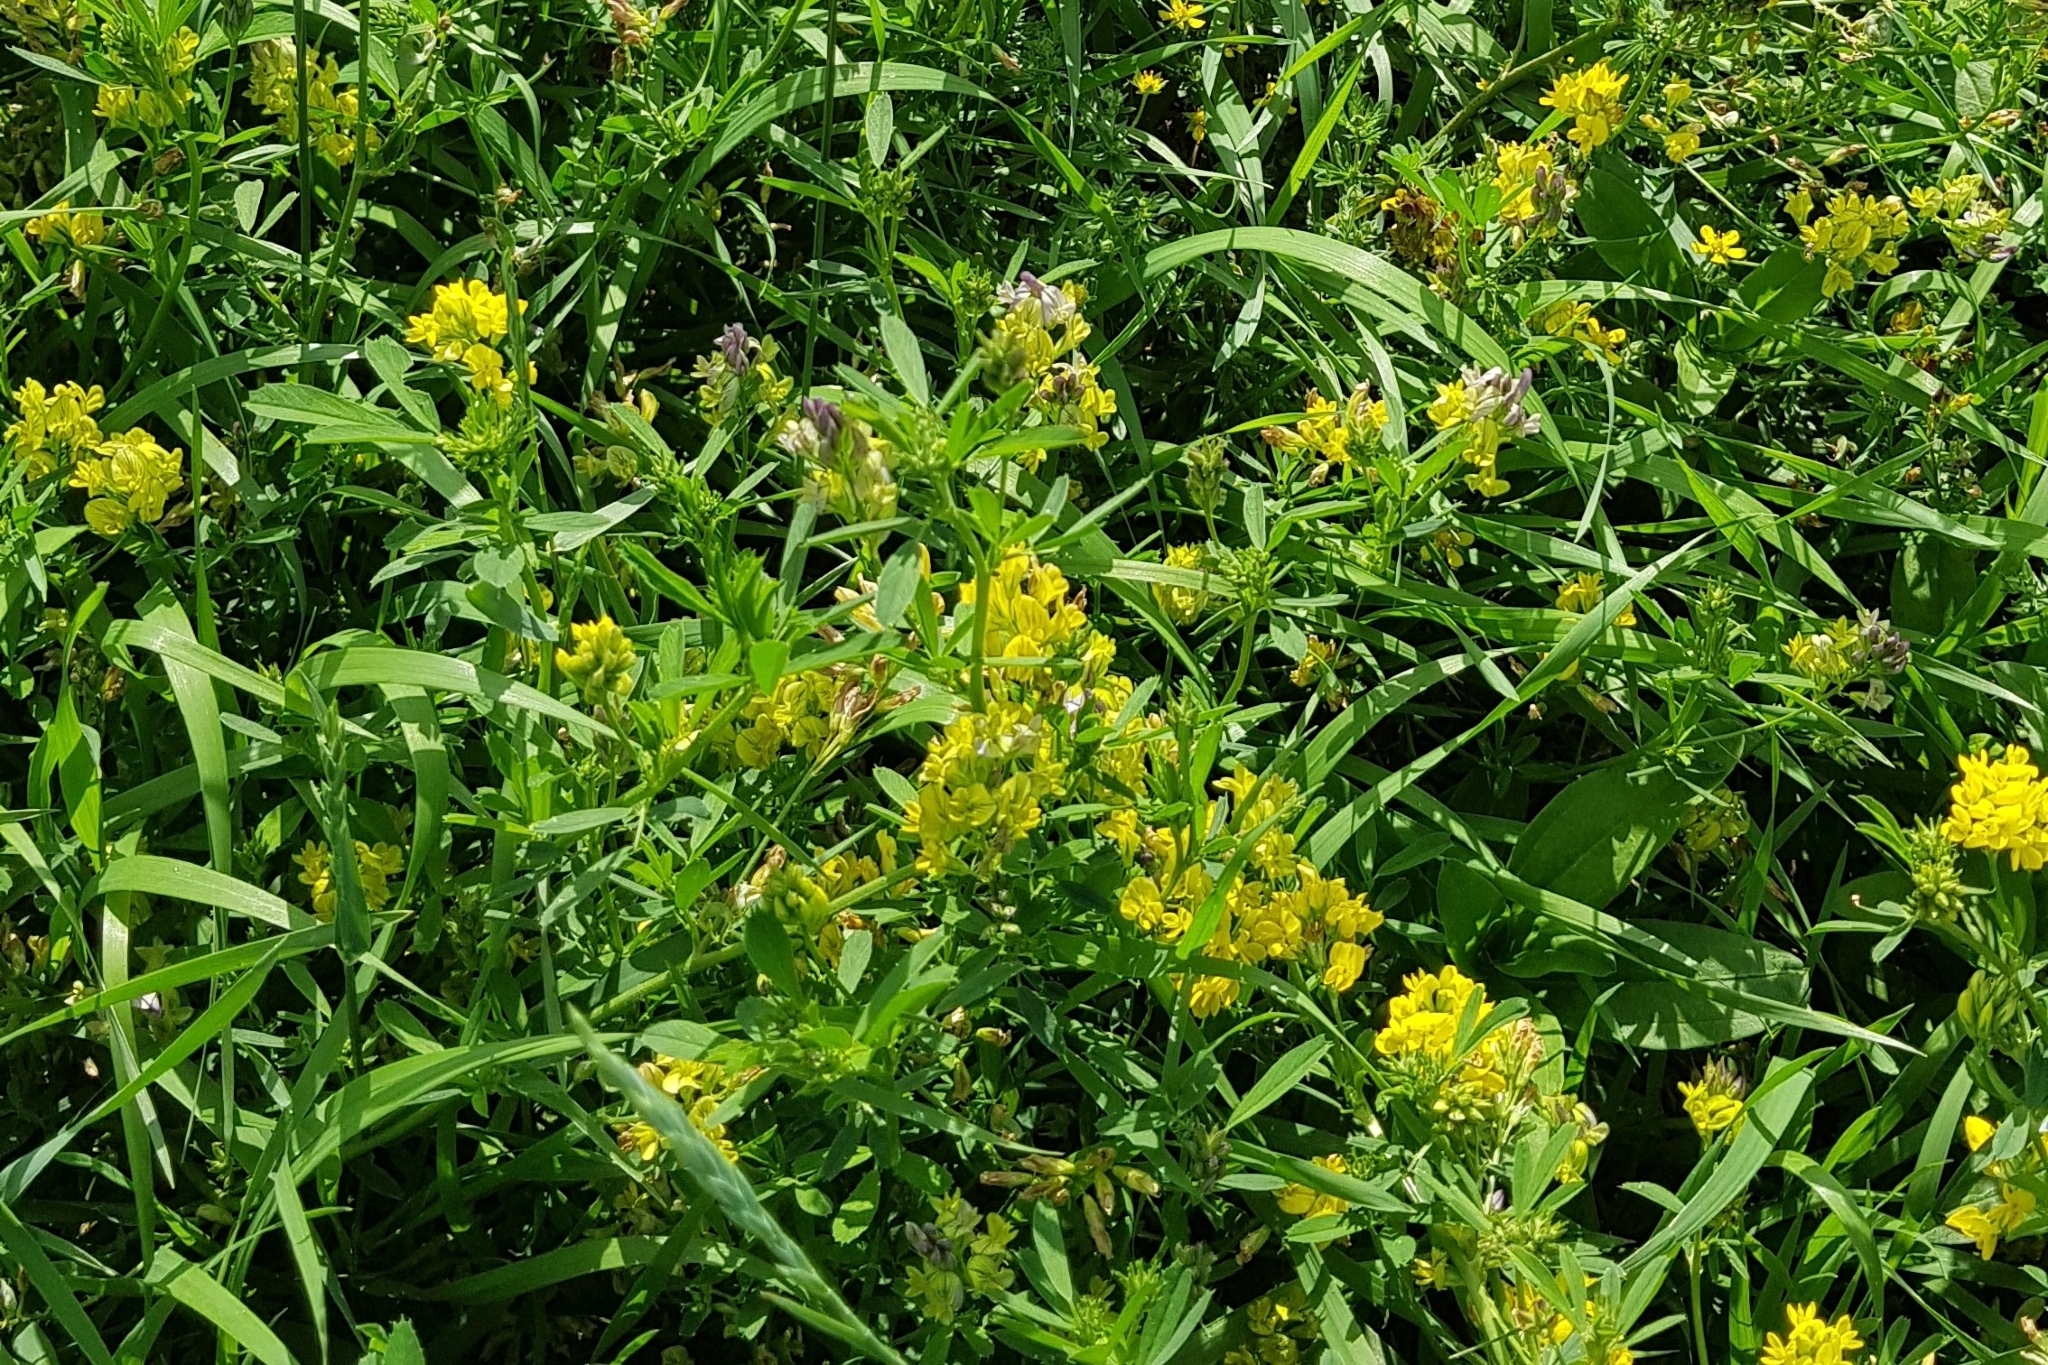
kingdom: Plantae
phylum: Tracheophyta
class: Magnoliopsida
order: Fabales
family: Fabaceae
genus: Medicago
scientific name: Medicago falcata
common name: Sickle medick
